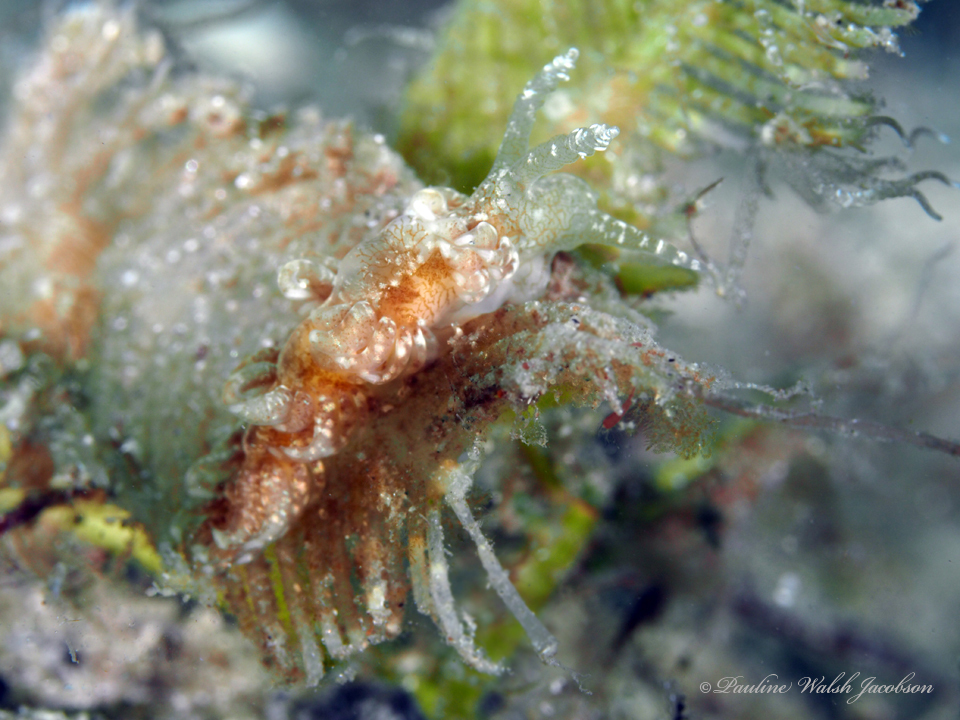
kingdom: Animalia
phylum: Mollusca
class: Gastropoda
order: Nudibranchia
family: Aeolidiidae
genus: Spurilla
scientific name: Spurilla sargassicola
